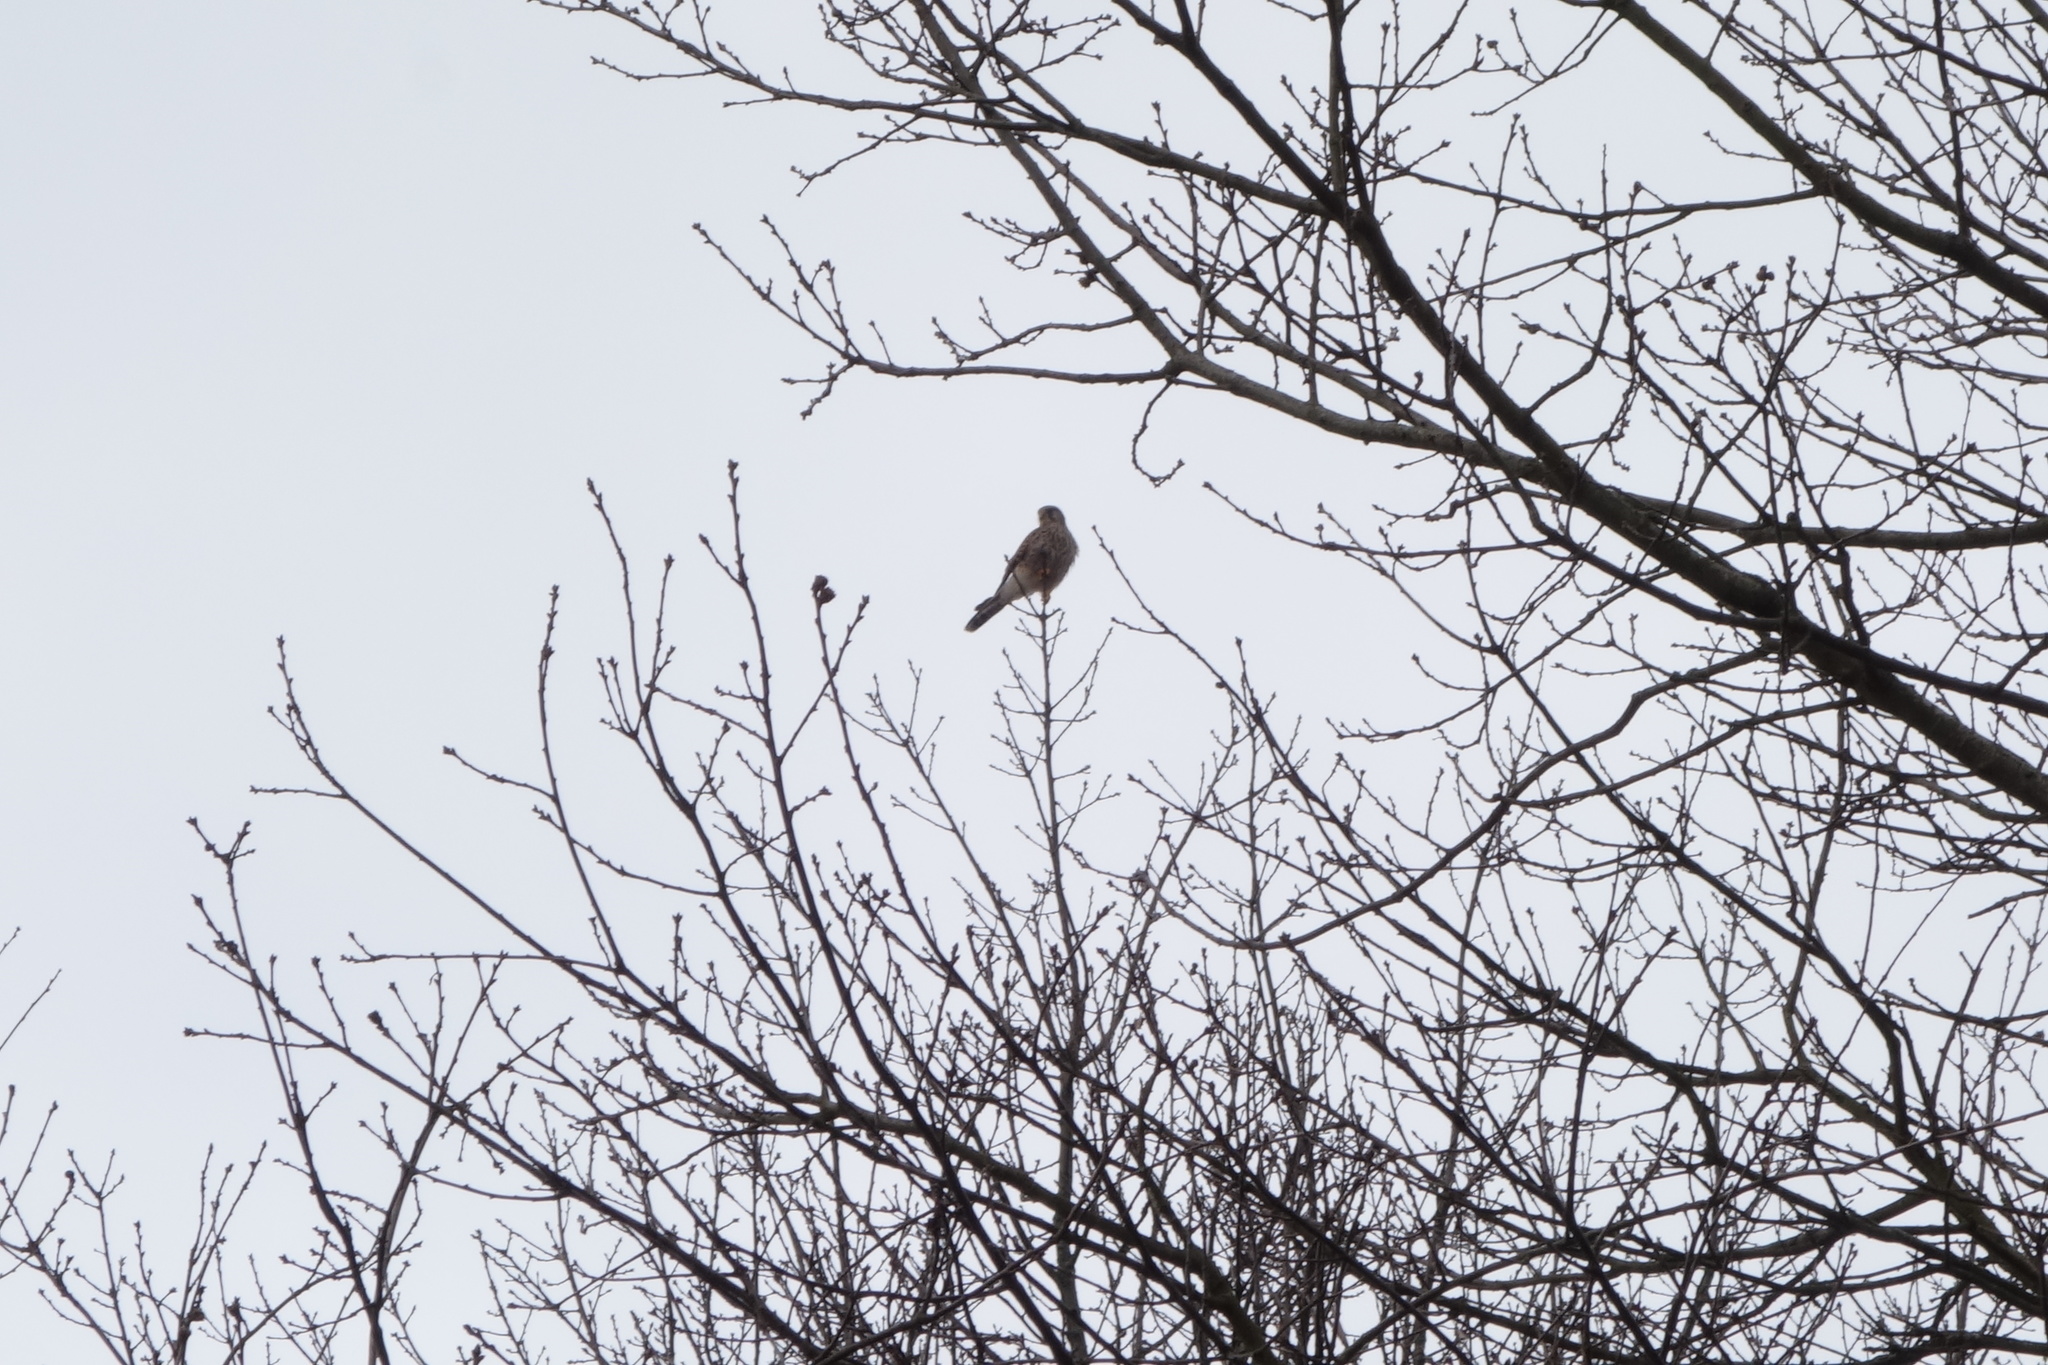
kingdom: Animalia
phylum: Chordata
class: Aves
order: Falconiformes
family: Falconidae
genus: Falco
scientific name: Falco tinnunculus
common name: Common kestrel
